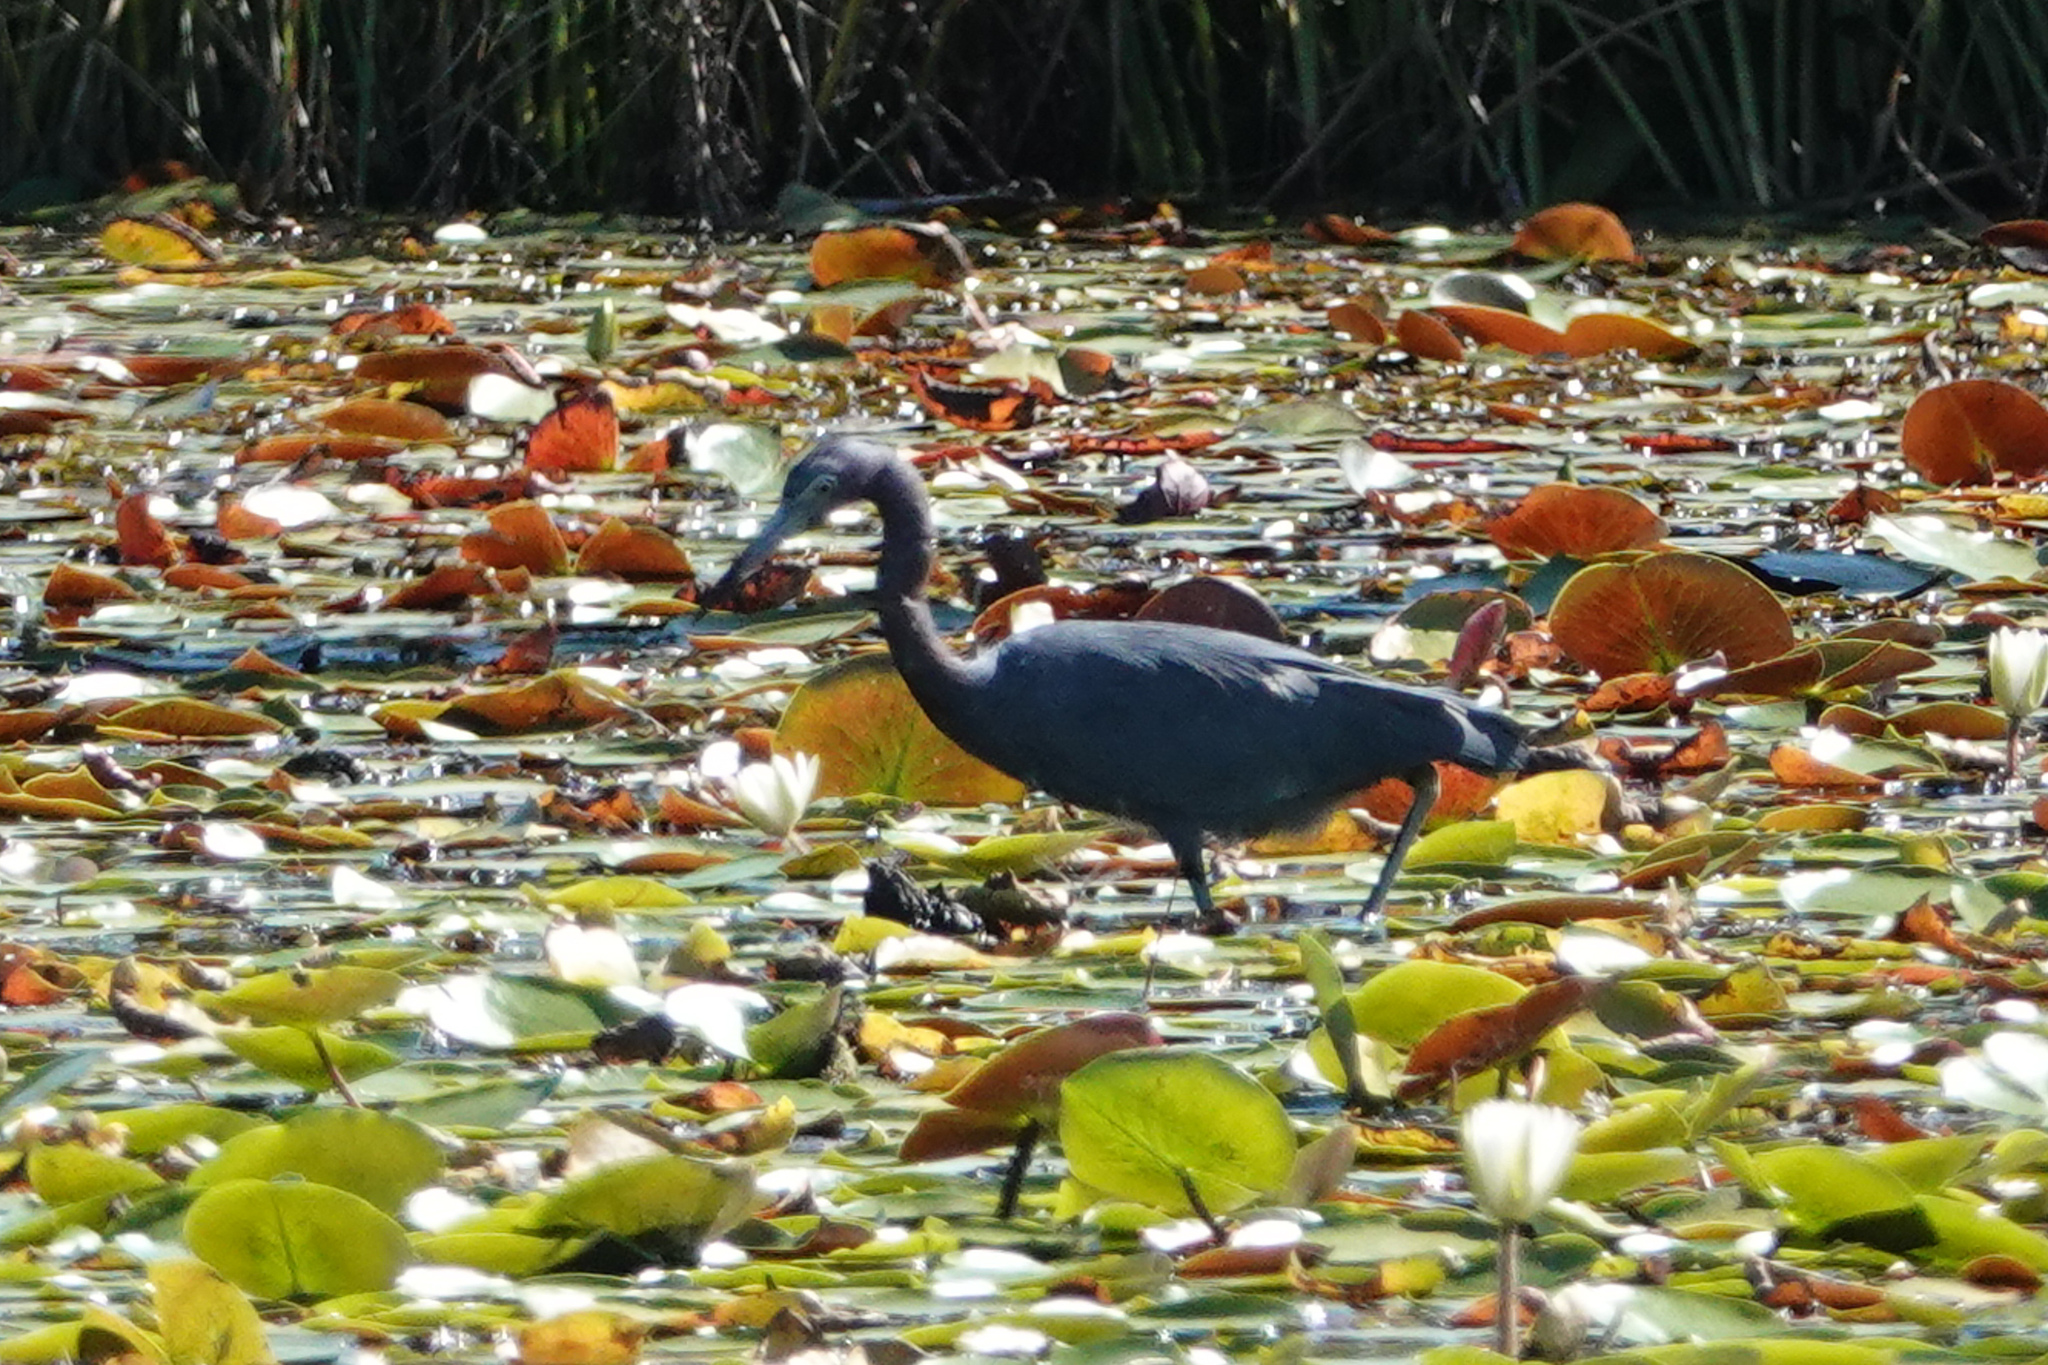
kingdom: Animalia
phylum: Chordata
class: Aves
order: Pelecaniformes
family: Ardeidae
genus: Egretta
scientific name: Egretta caerulea
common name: Little blue heron
